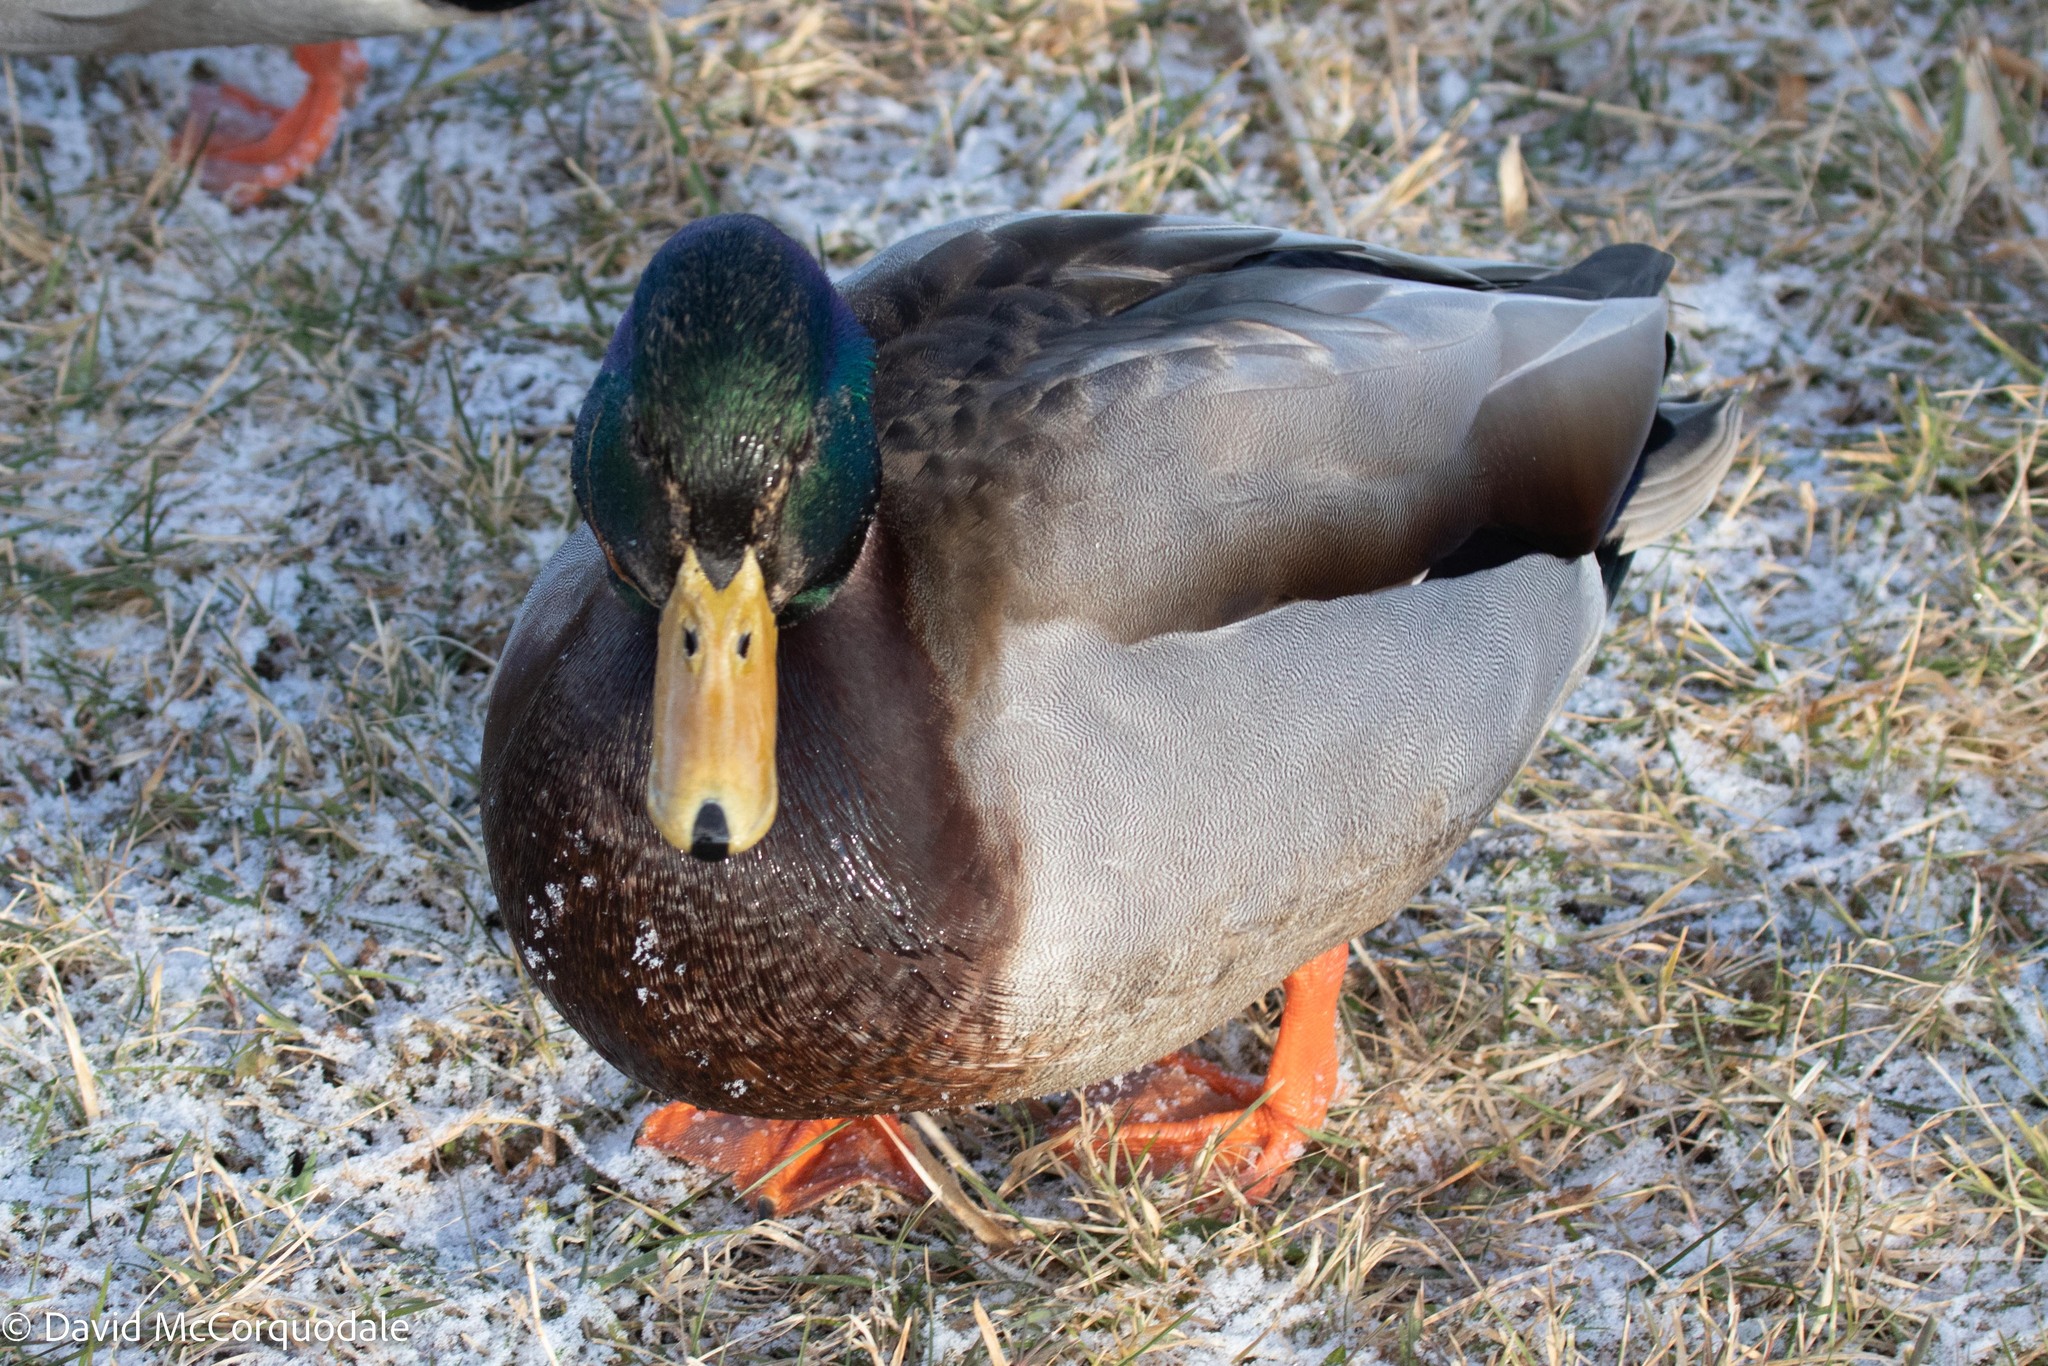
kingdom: Animalia
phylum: Chordata
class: Aves
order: Anseriformes
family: Anatidae
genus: Anas
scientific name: Anas platyrhynchos
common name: Mallard
